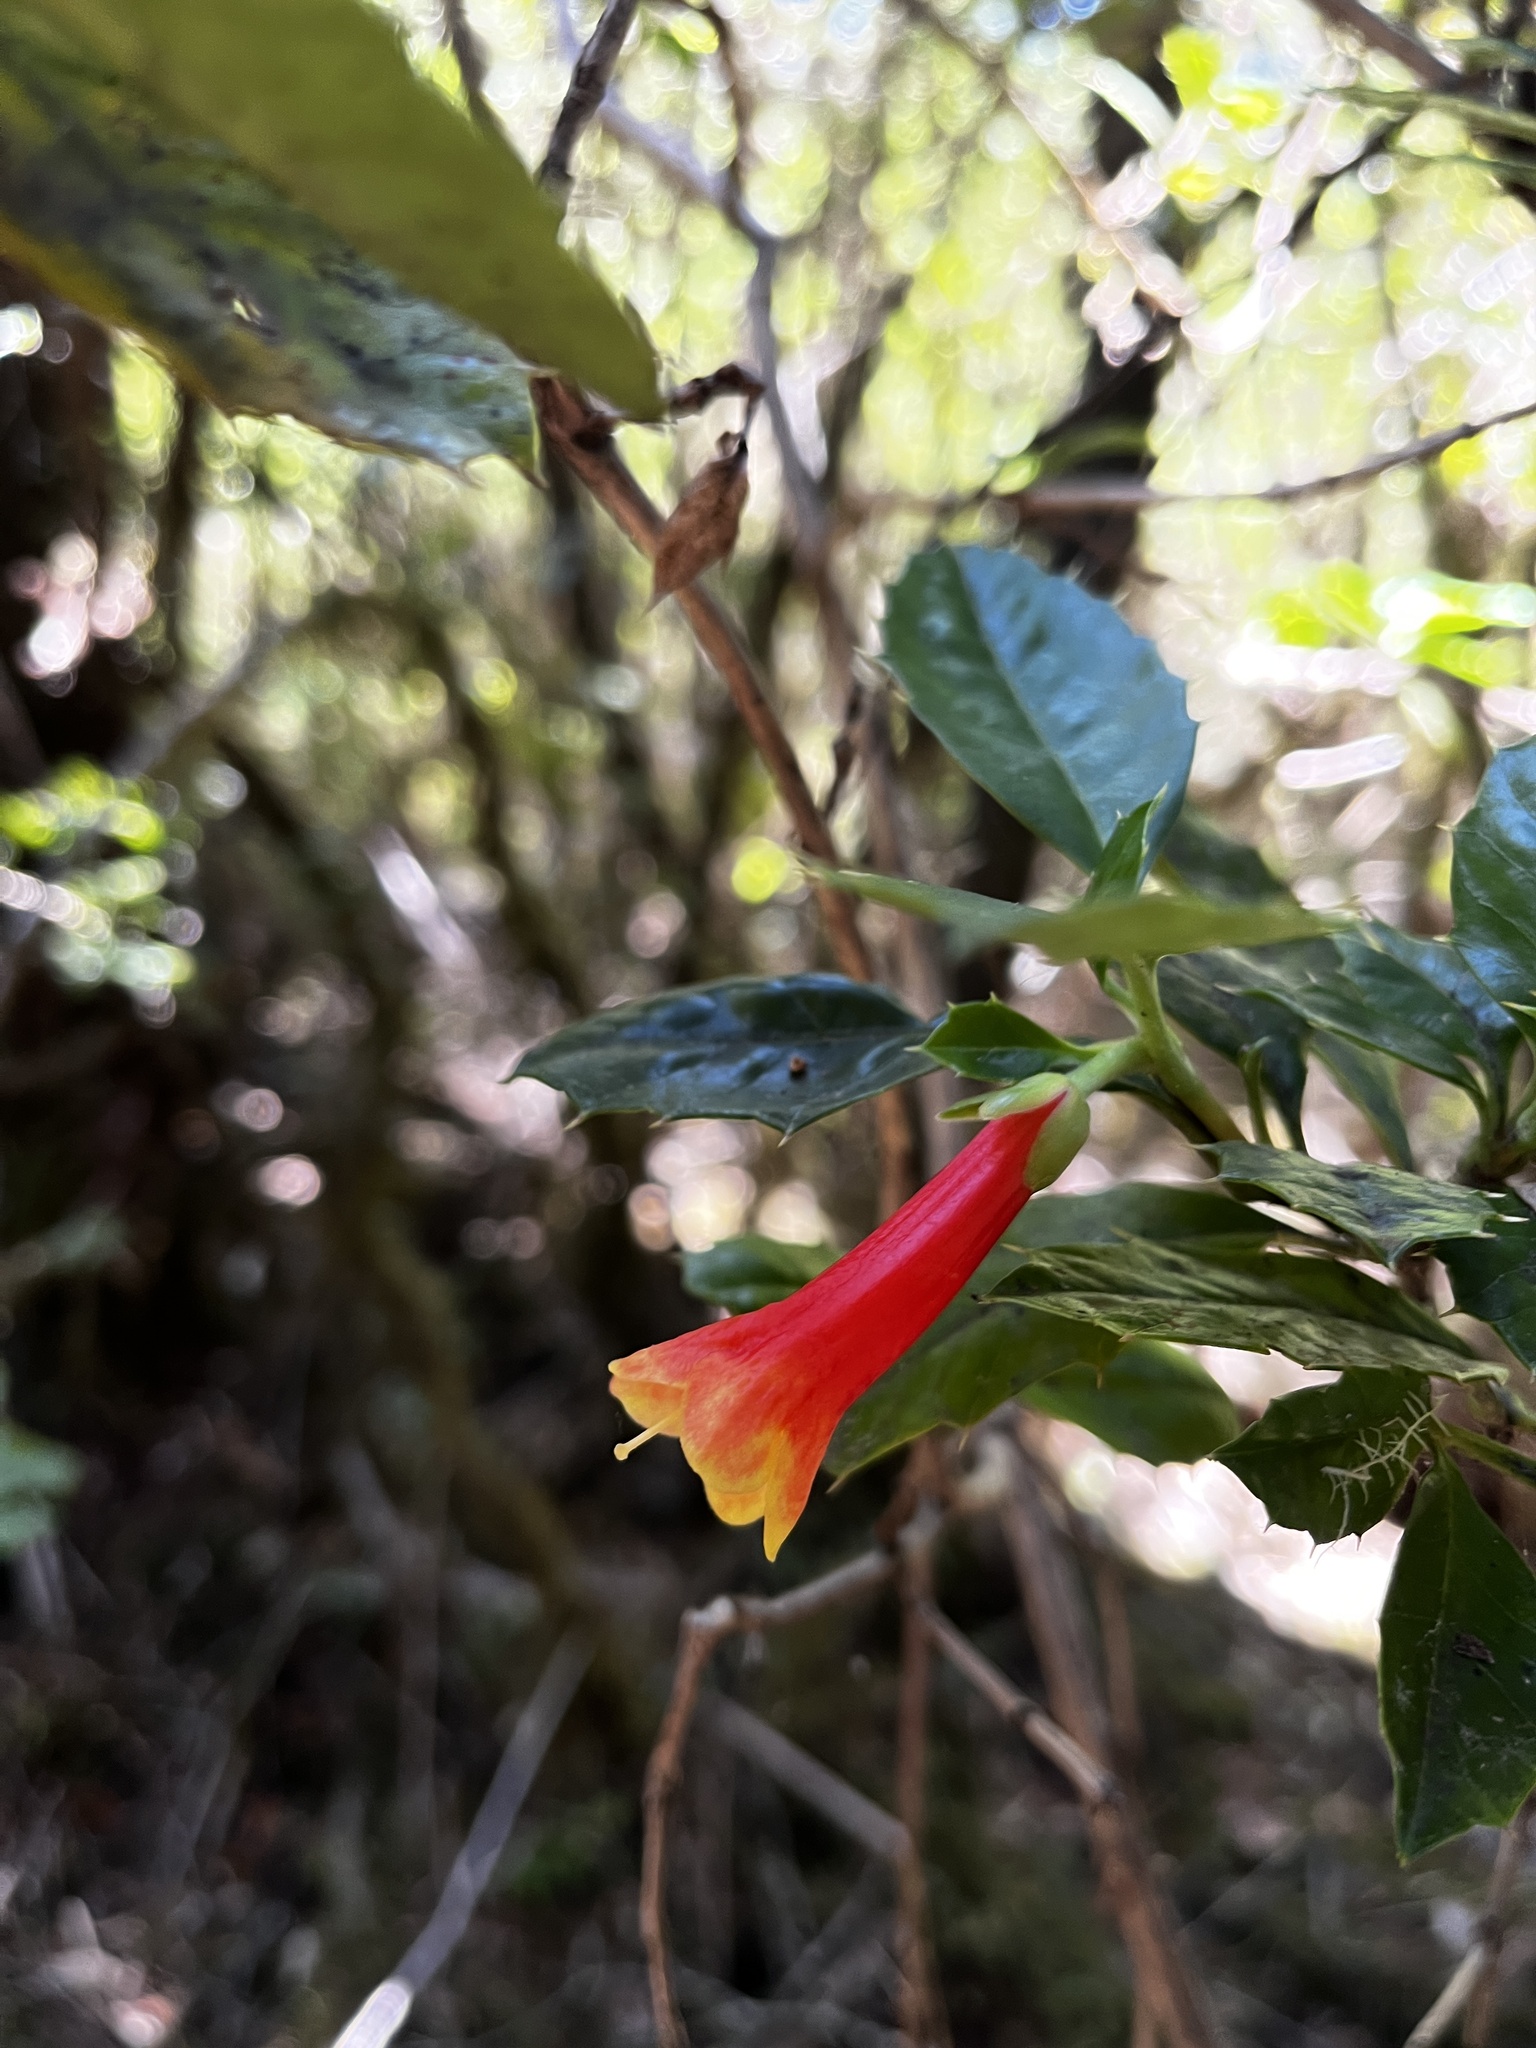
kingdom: Plantae
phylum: Tracheophyta
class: Magnoliopsida
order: Bruniales
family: Columelliaceae
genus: Desfontainia
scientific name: Desfontainia fulgens
